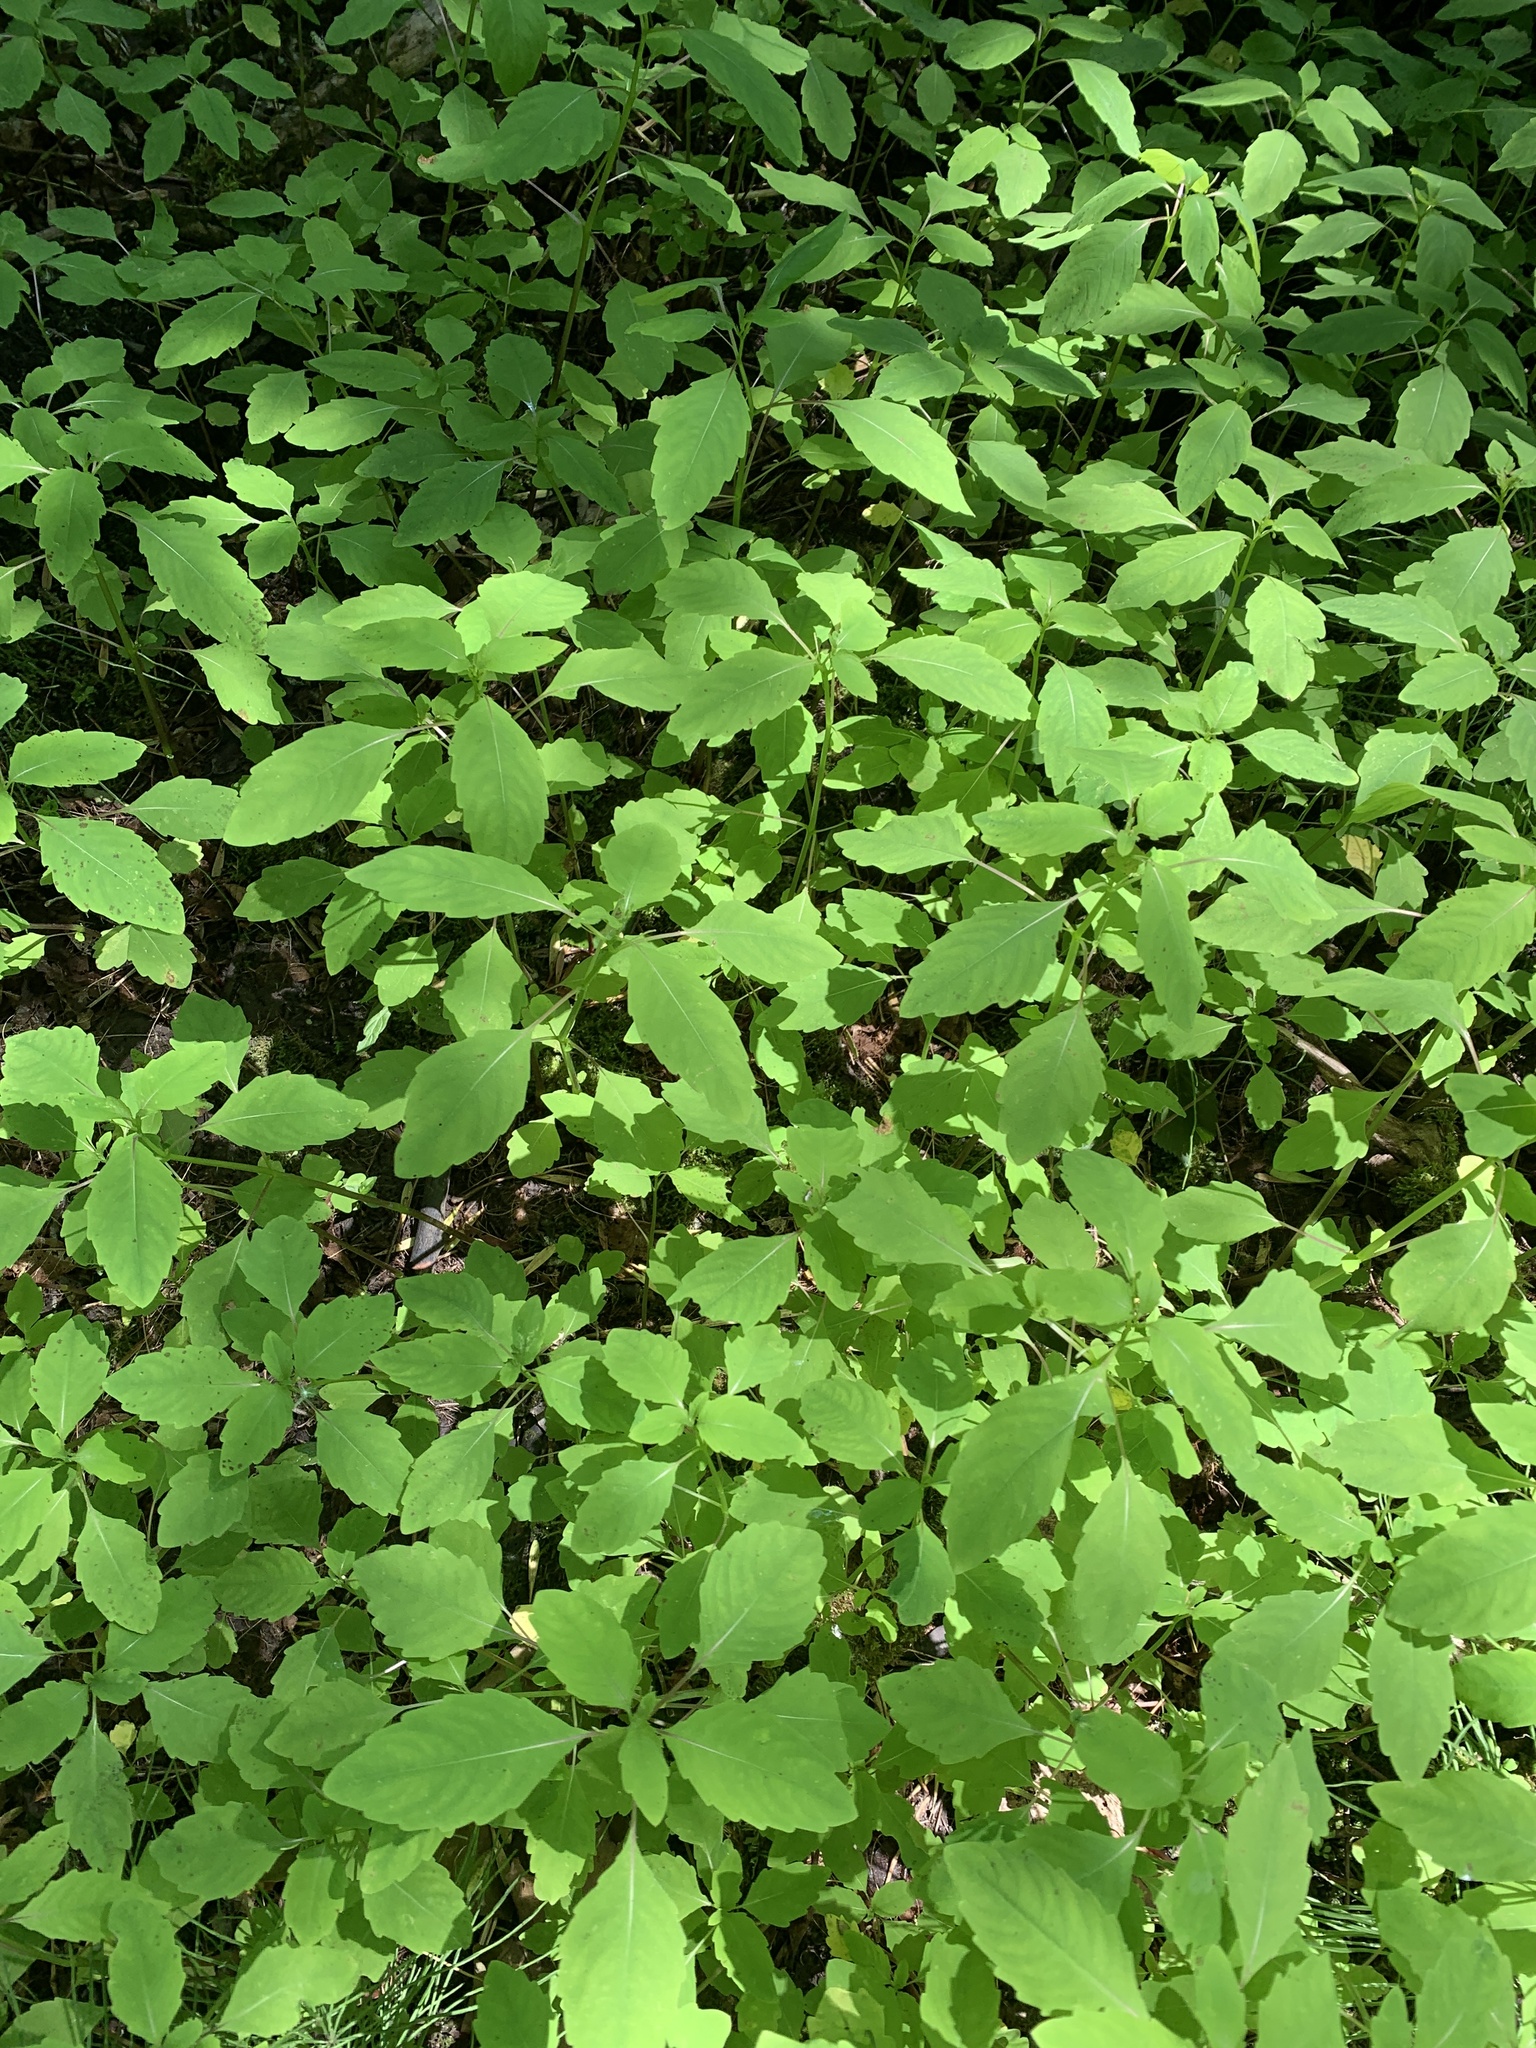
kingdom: Plantae
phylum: Tracheophyta
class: Magnoliopsida
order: Ericales
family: Balsaminaceae
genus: Impatiens
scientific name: Impatiens capensis
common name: Orange balsam
